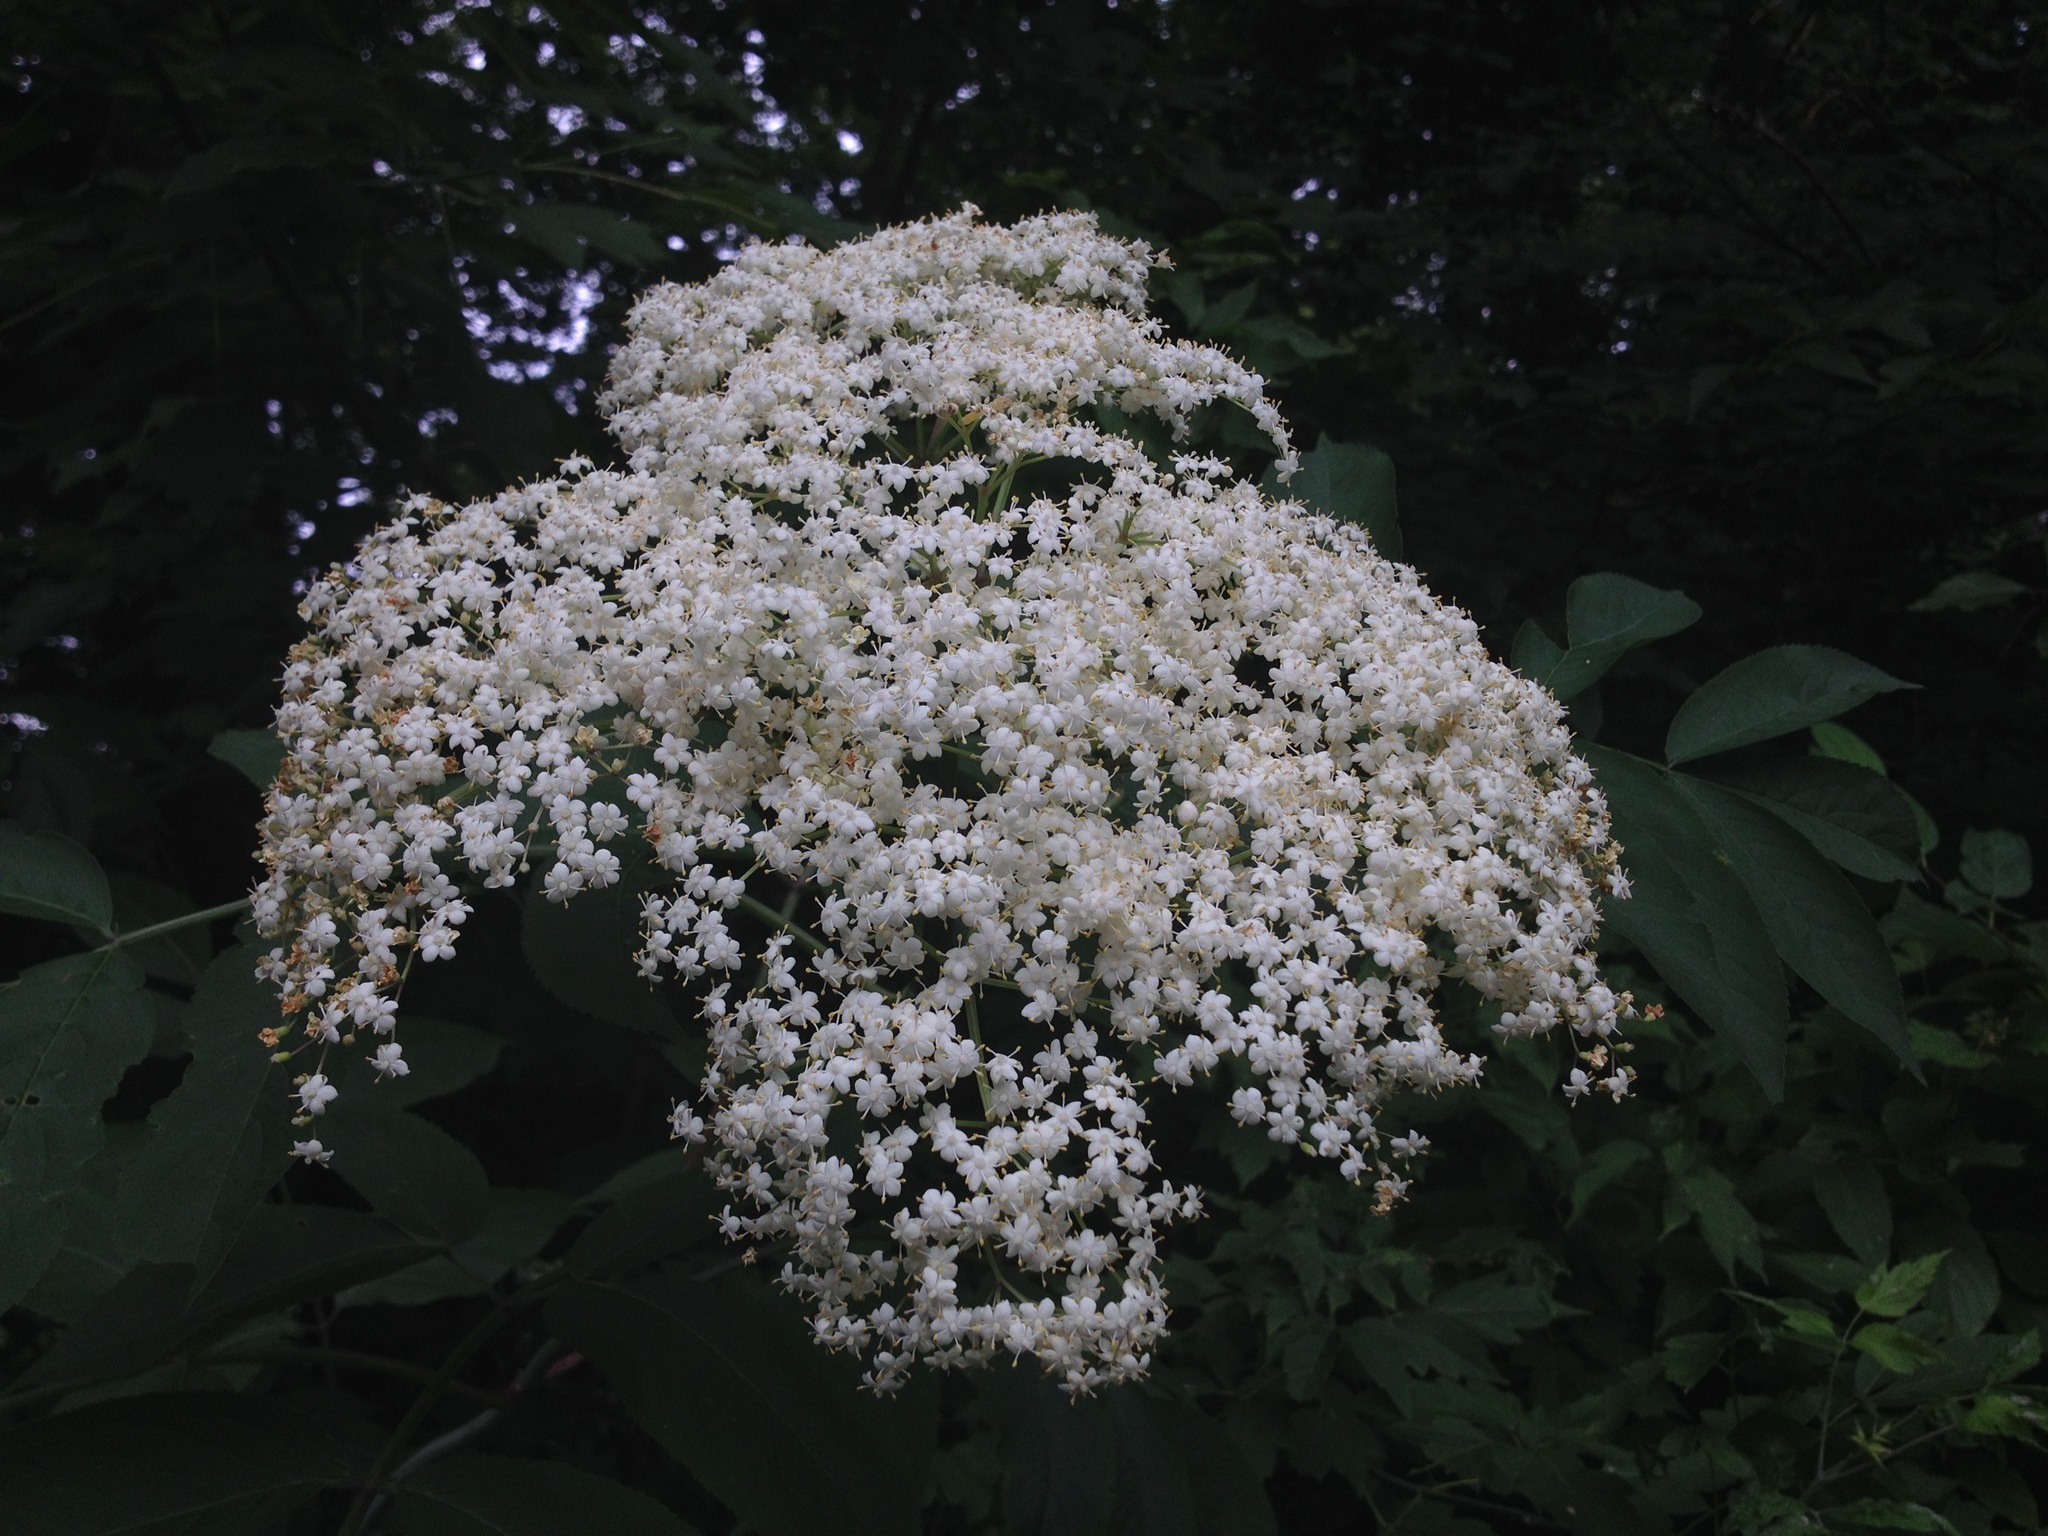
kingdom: Plantae
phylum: Tracheophyta
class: Magnoliopsida
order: Dipsacales
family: Viburnaceae
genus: Sambucus
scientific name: Sambucus canadensis
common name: American elder
